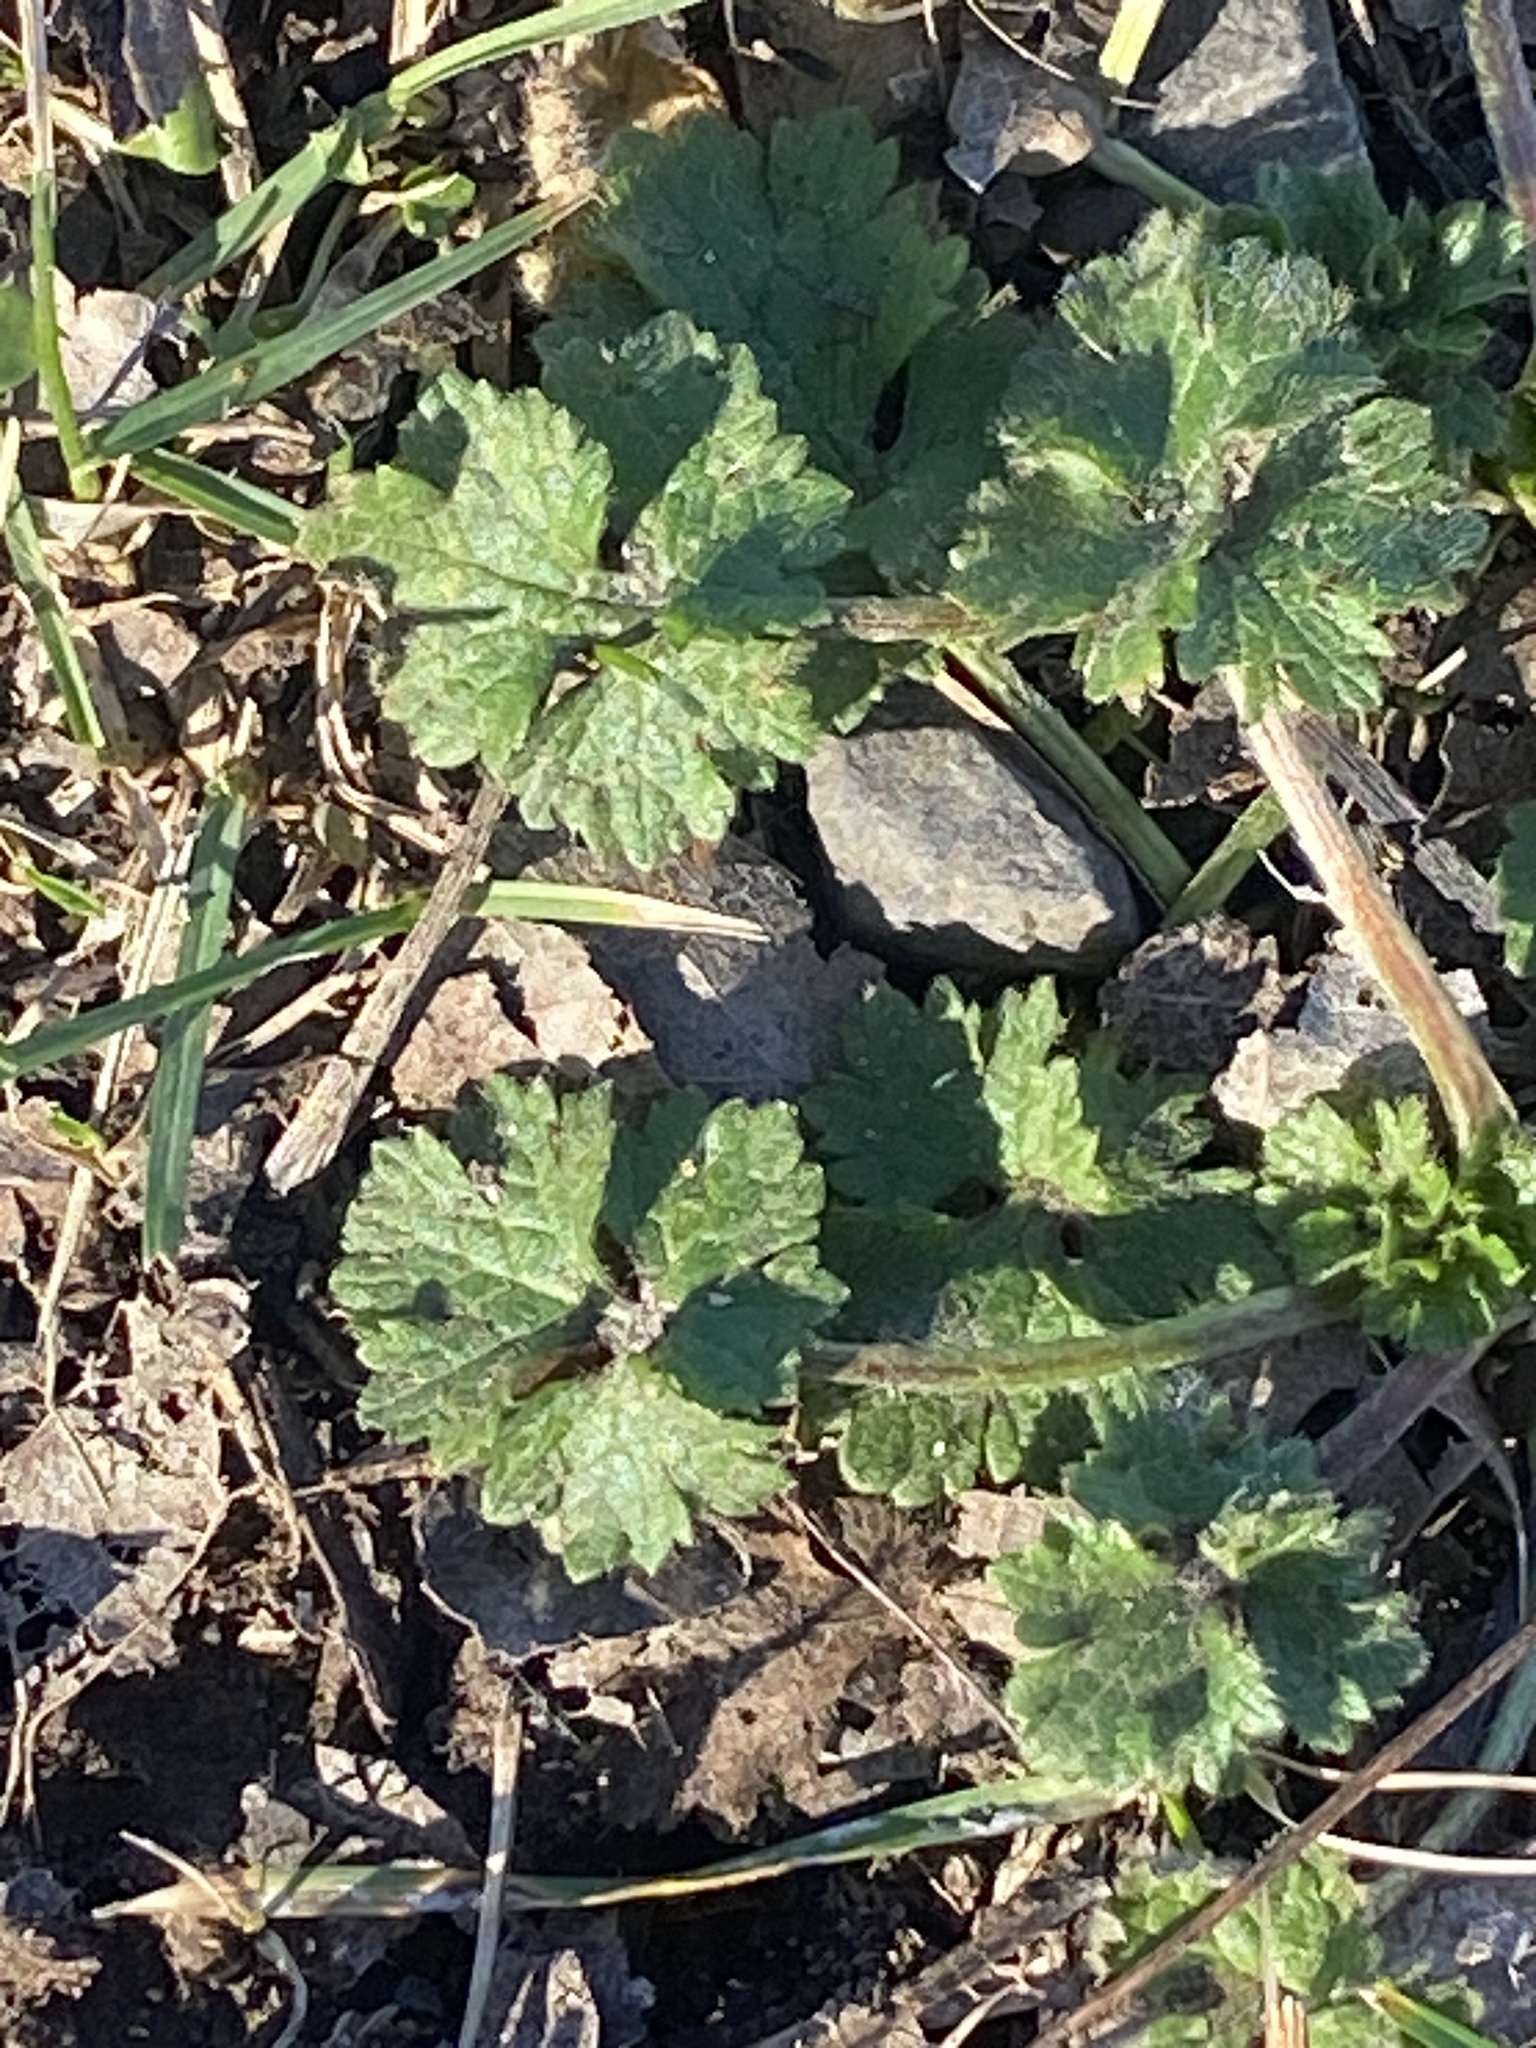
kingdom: Plantae
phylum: Tracheophyta
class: Magnoliopsida
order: Ranunculales
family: Ranunculaceae
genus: Ranunculus
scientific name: Ranunculus bulbosus
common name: Bulbous buttercup
